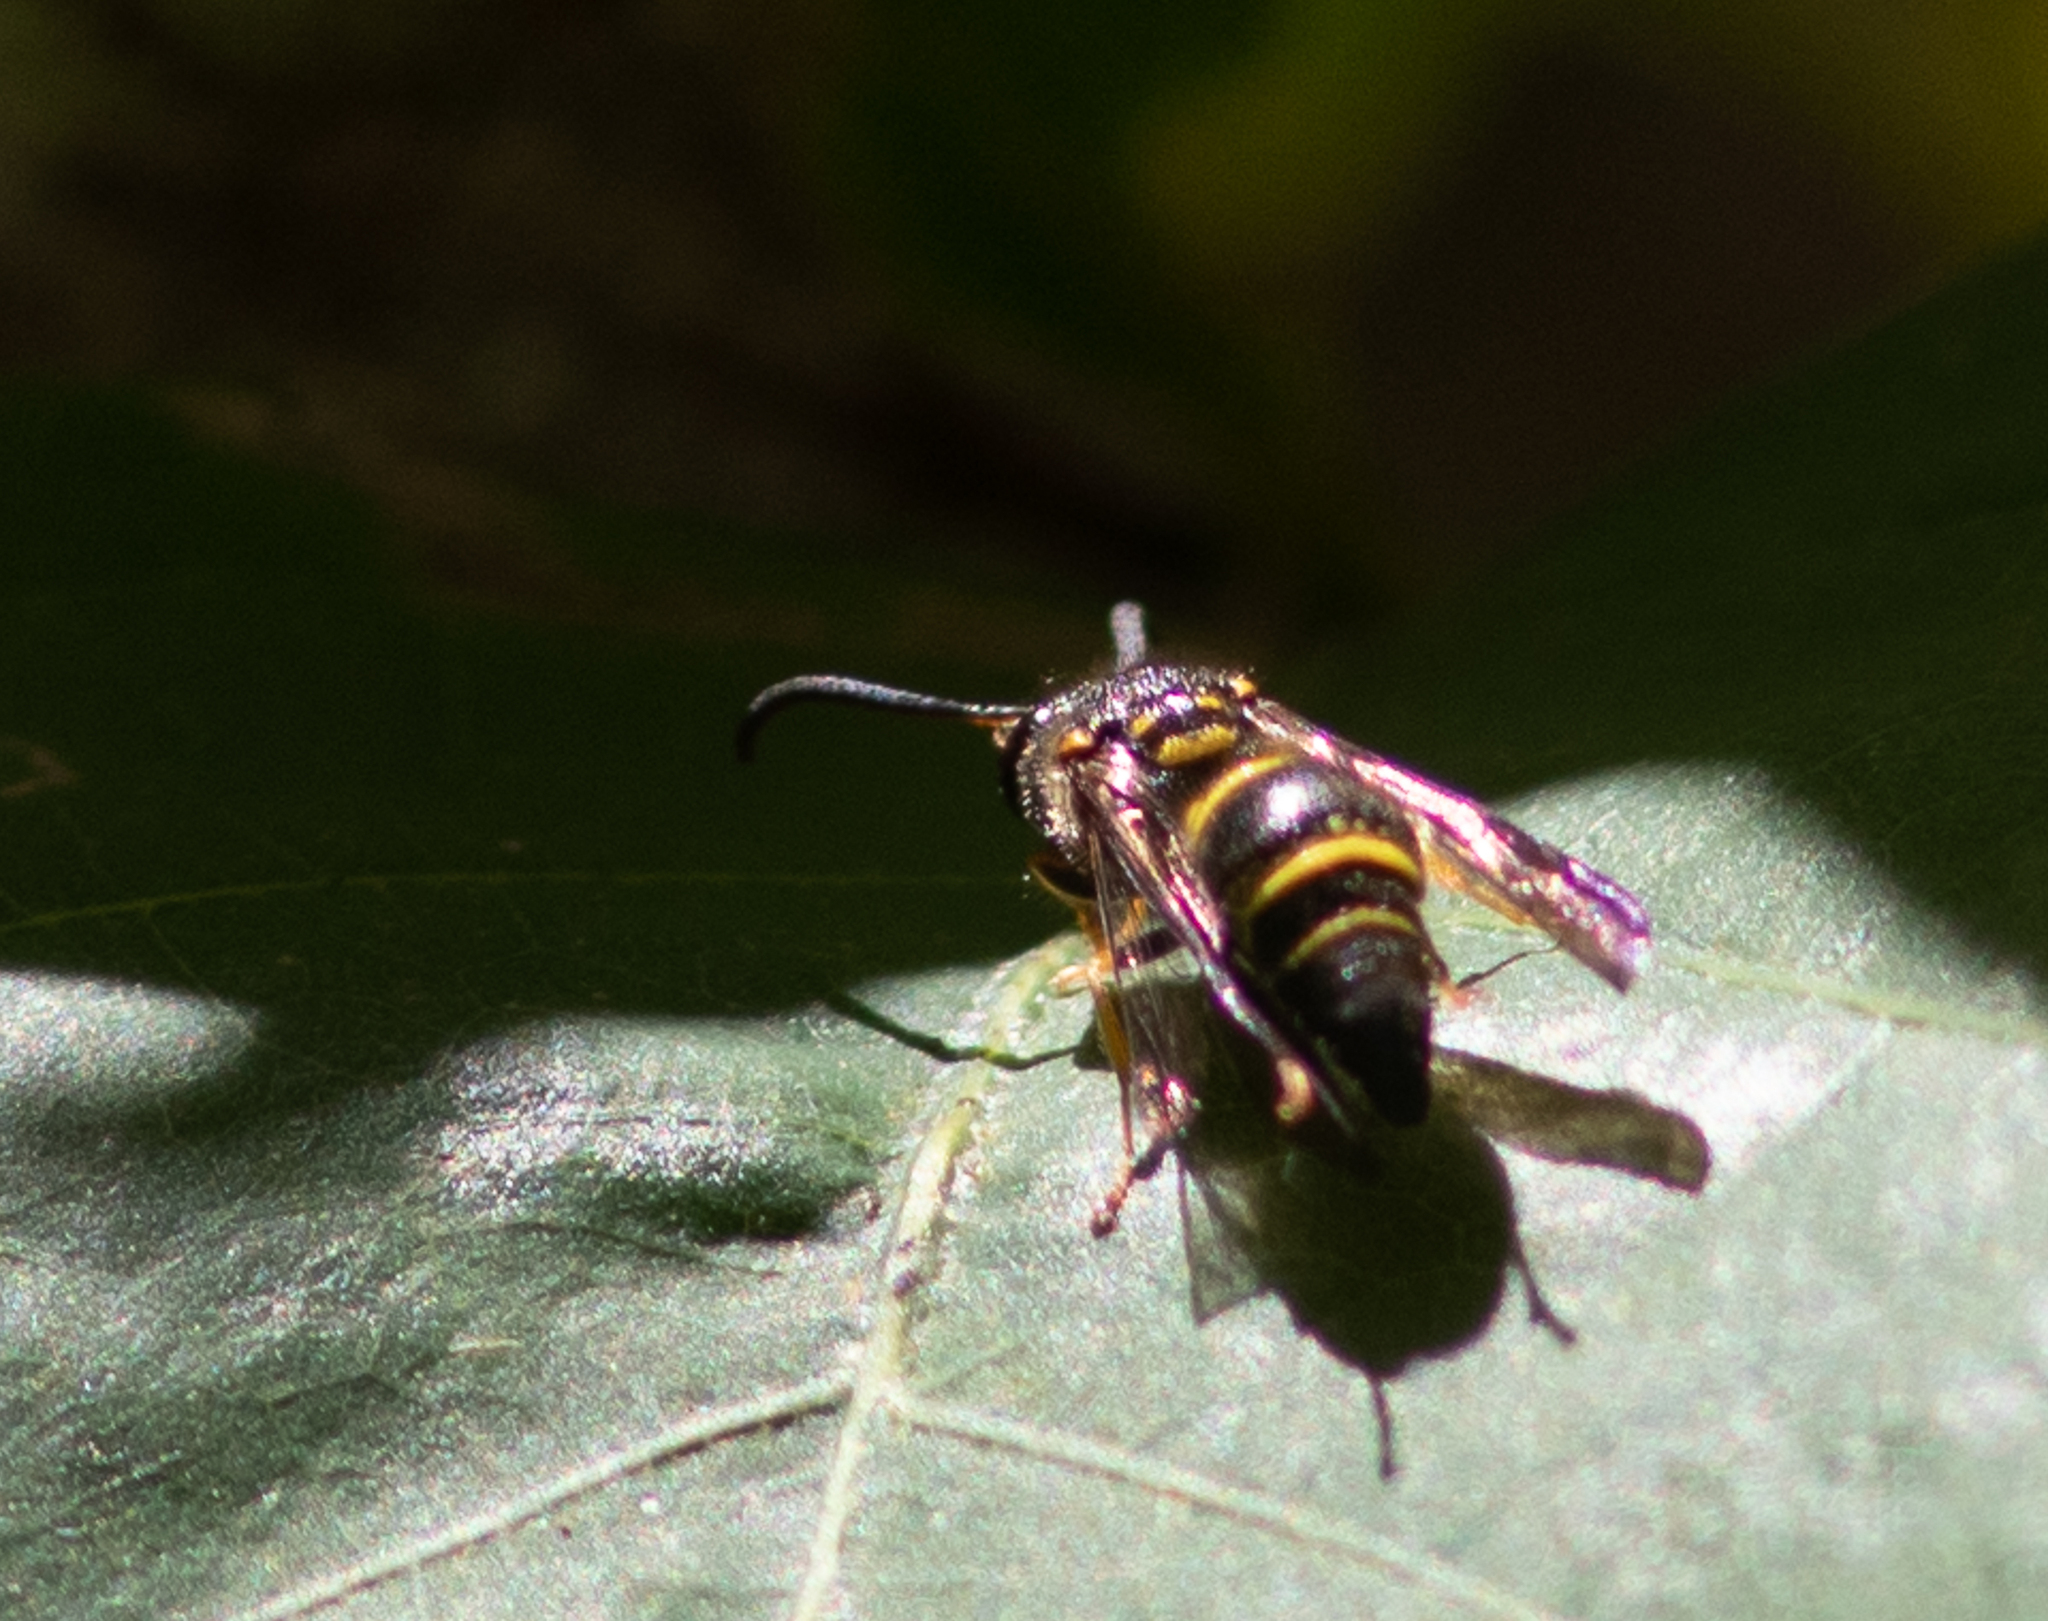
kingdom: Animalia
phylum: Arthropoda
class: Insecta
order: Hymenoptera
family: Vespidae
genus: Ancistrocerus
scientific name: Ancistrocerus campestris
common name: Smiling mason wasp
